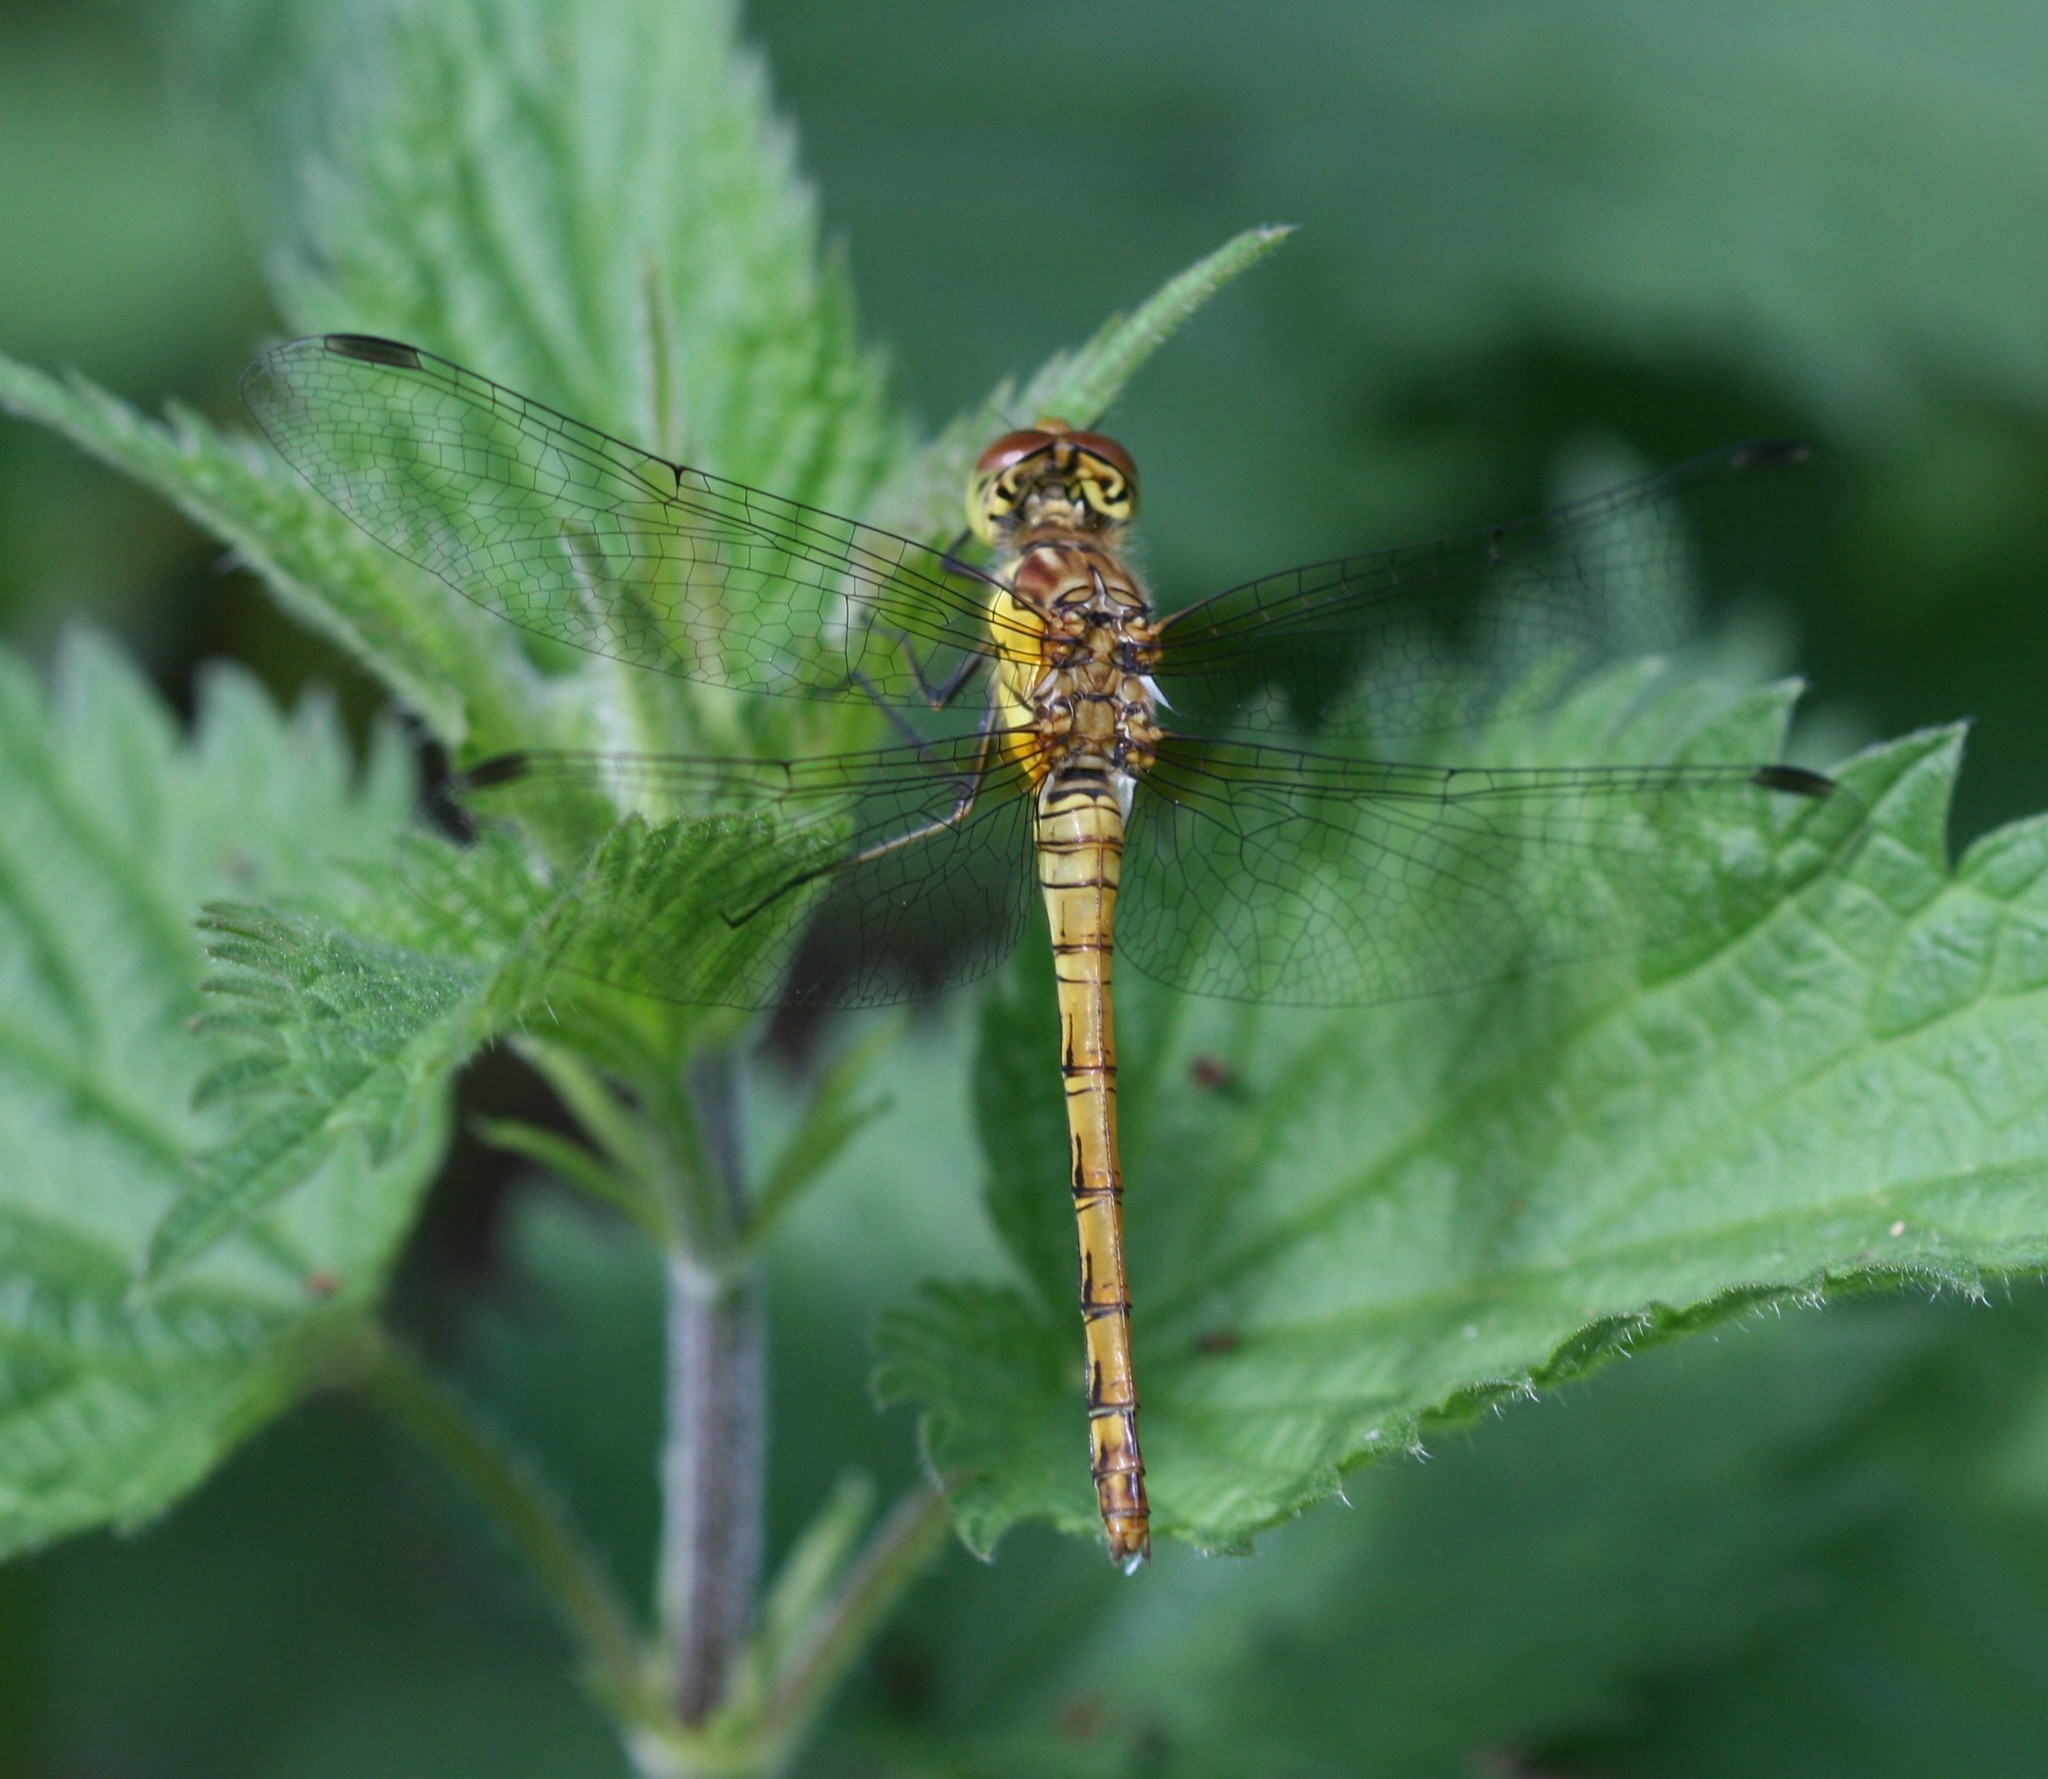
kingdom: Animalia
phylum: Arthropoda
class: Insecta
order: Odonata
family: Libellulidae
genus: Sympetrum
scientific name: Sympetrum striolatum
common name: Common darter
